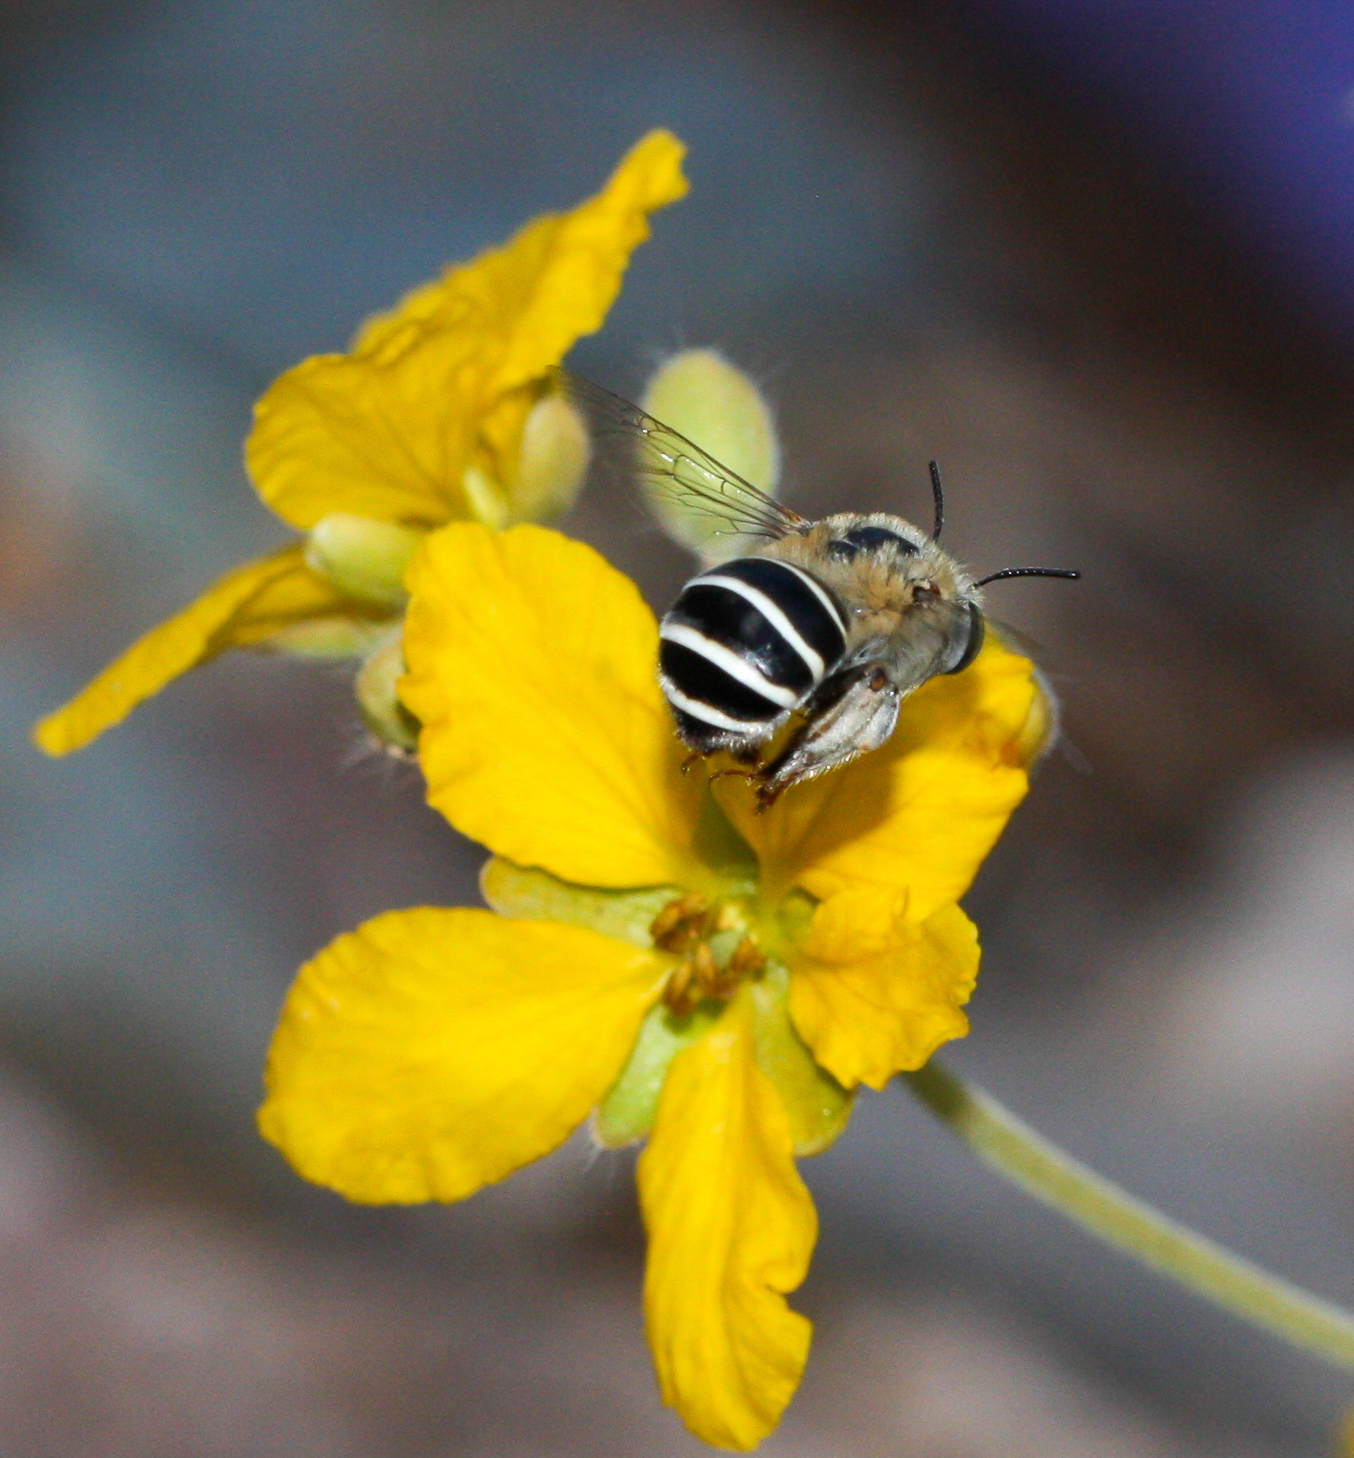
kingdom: Animalia
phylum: Arthropoda
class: Insecta
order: Hymenoptera
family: Apidae
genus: Anthophora
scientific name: Anthophora californica
